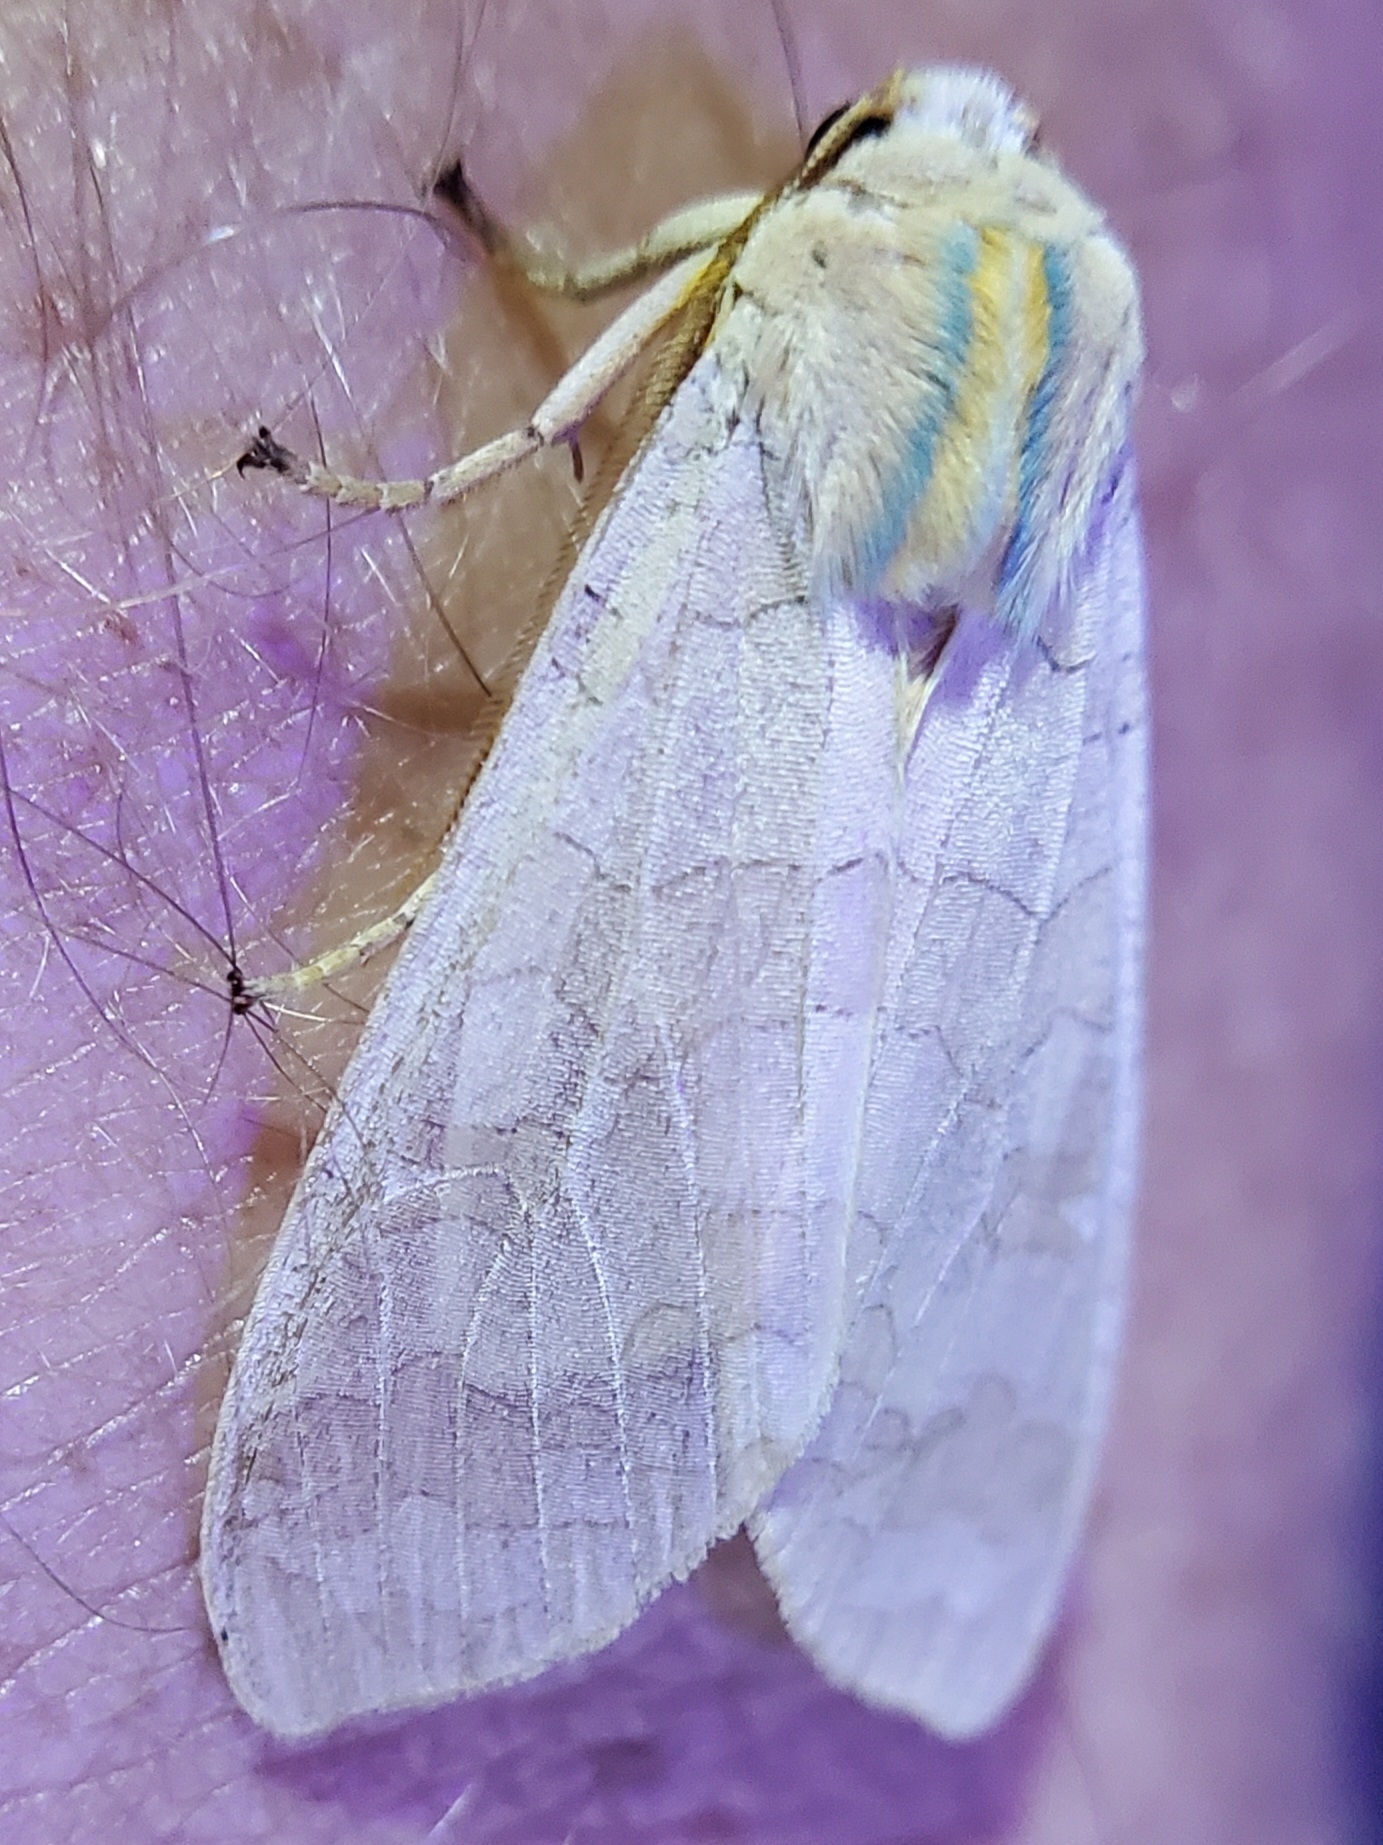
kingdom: Animalia
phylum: Arthropoda
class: Insecta
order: Lepidoptera
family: Erebidae
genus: Halysidota
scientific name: Halysidota
